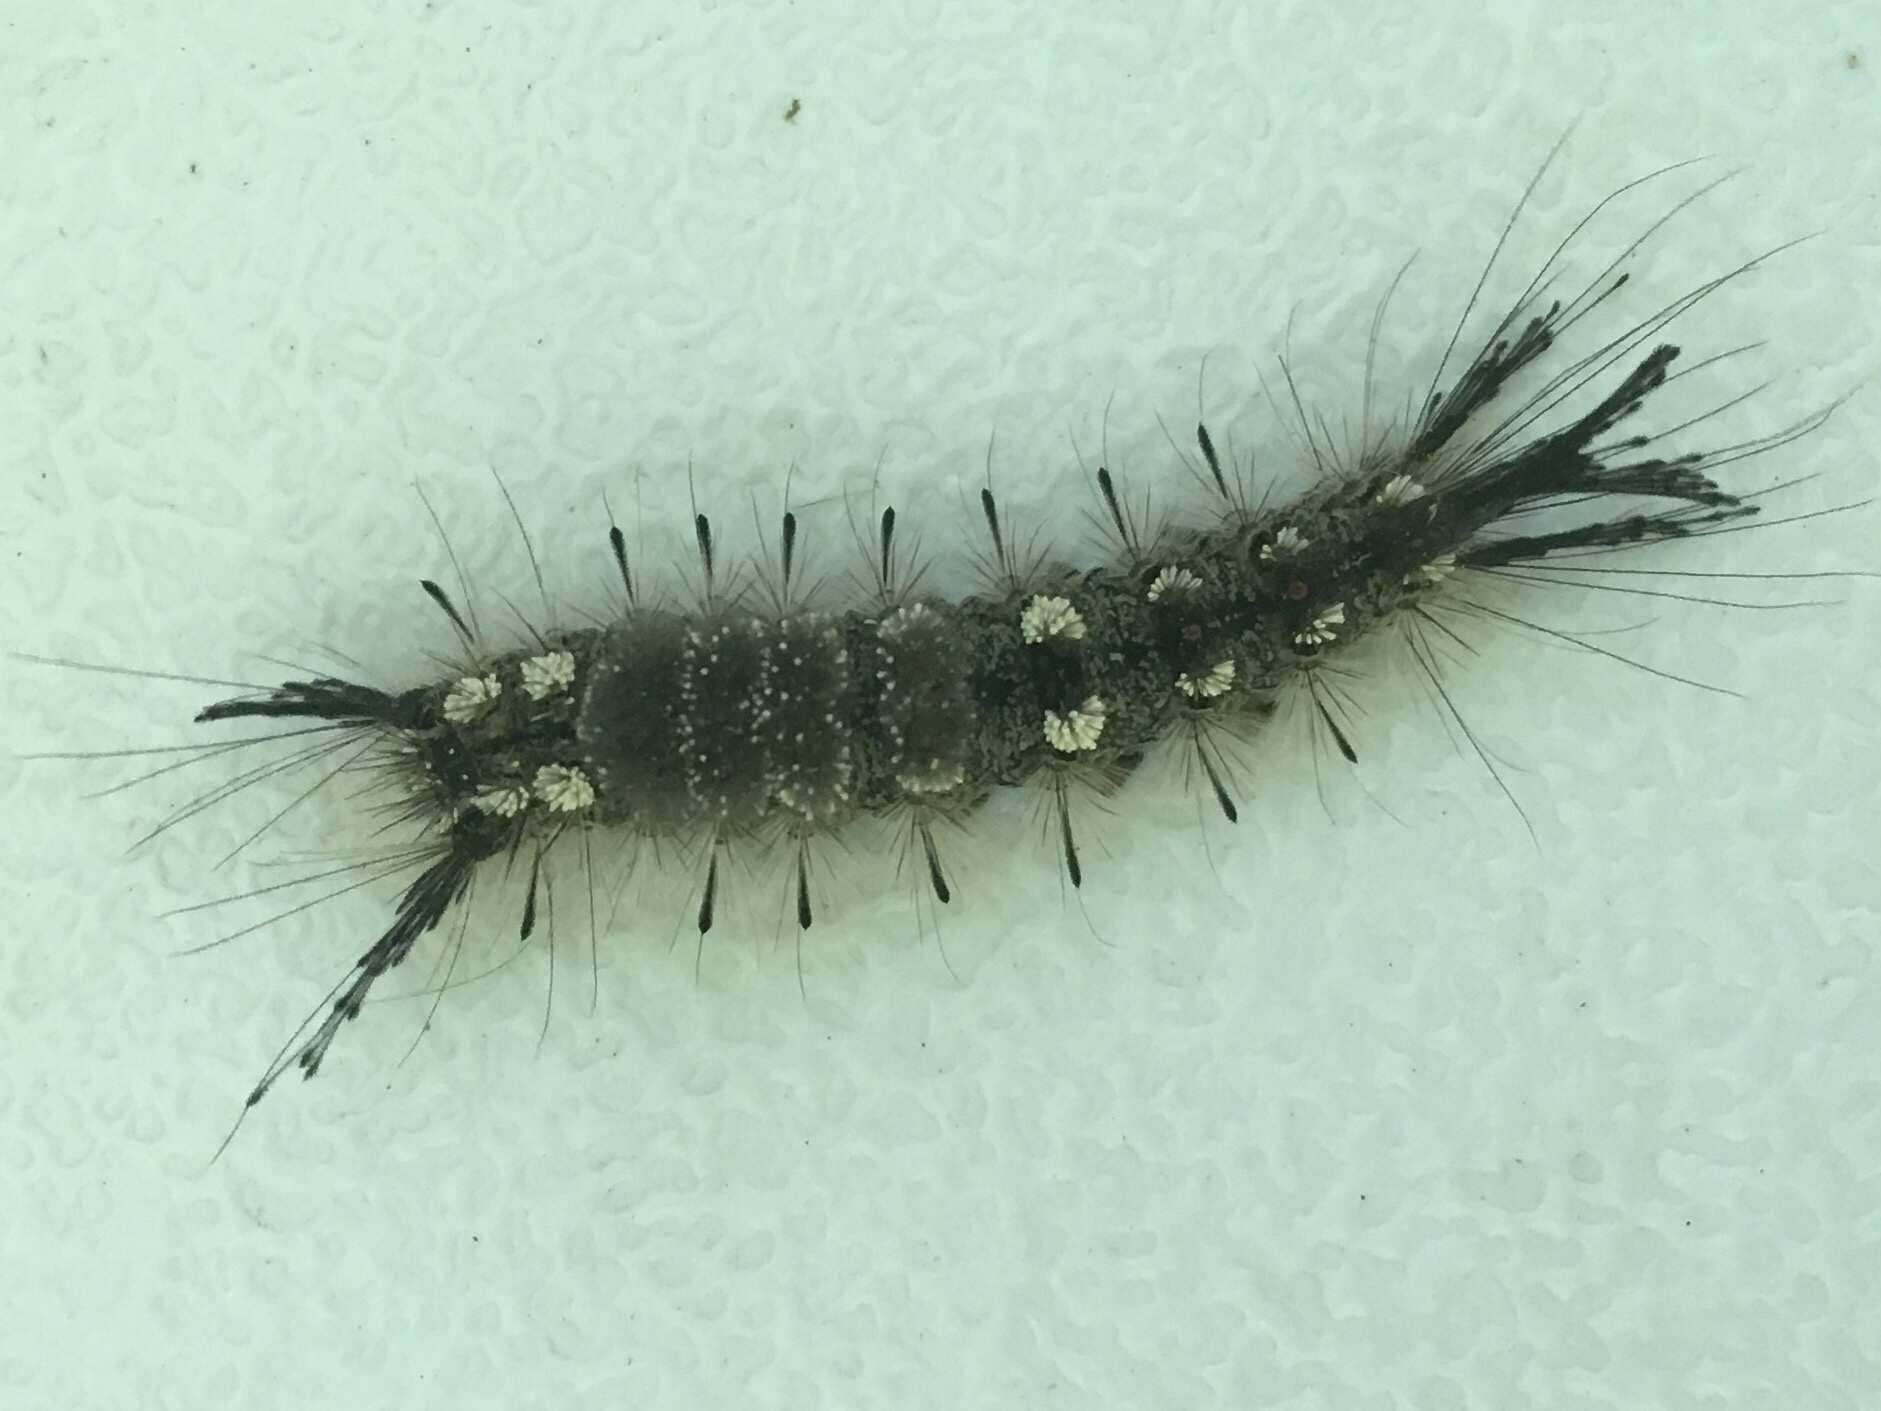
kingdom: Animalia
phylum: Arthropoda
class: Insecta
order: Lepidoptera
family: Erebidae
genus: Dasychira
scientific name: Dasychira plagiata
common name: Northern pine tussock moth
